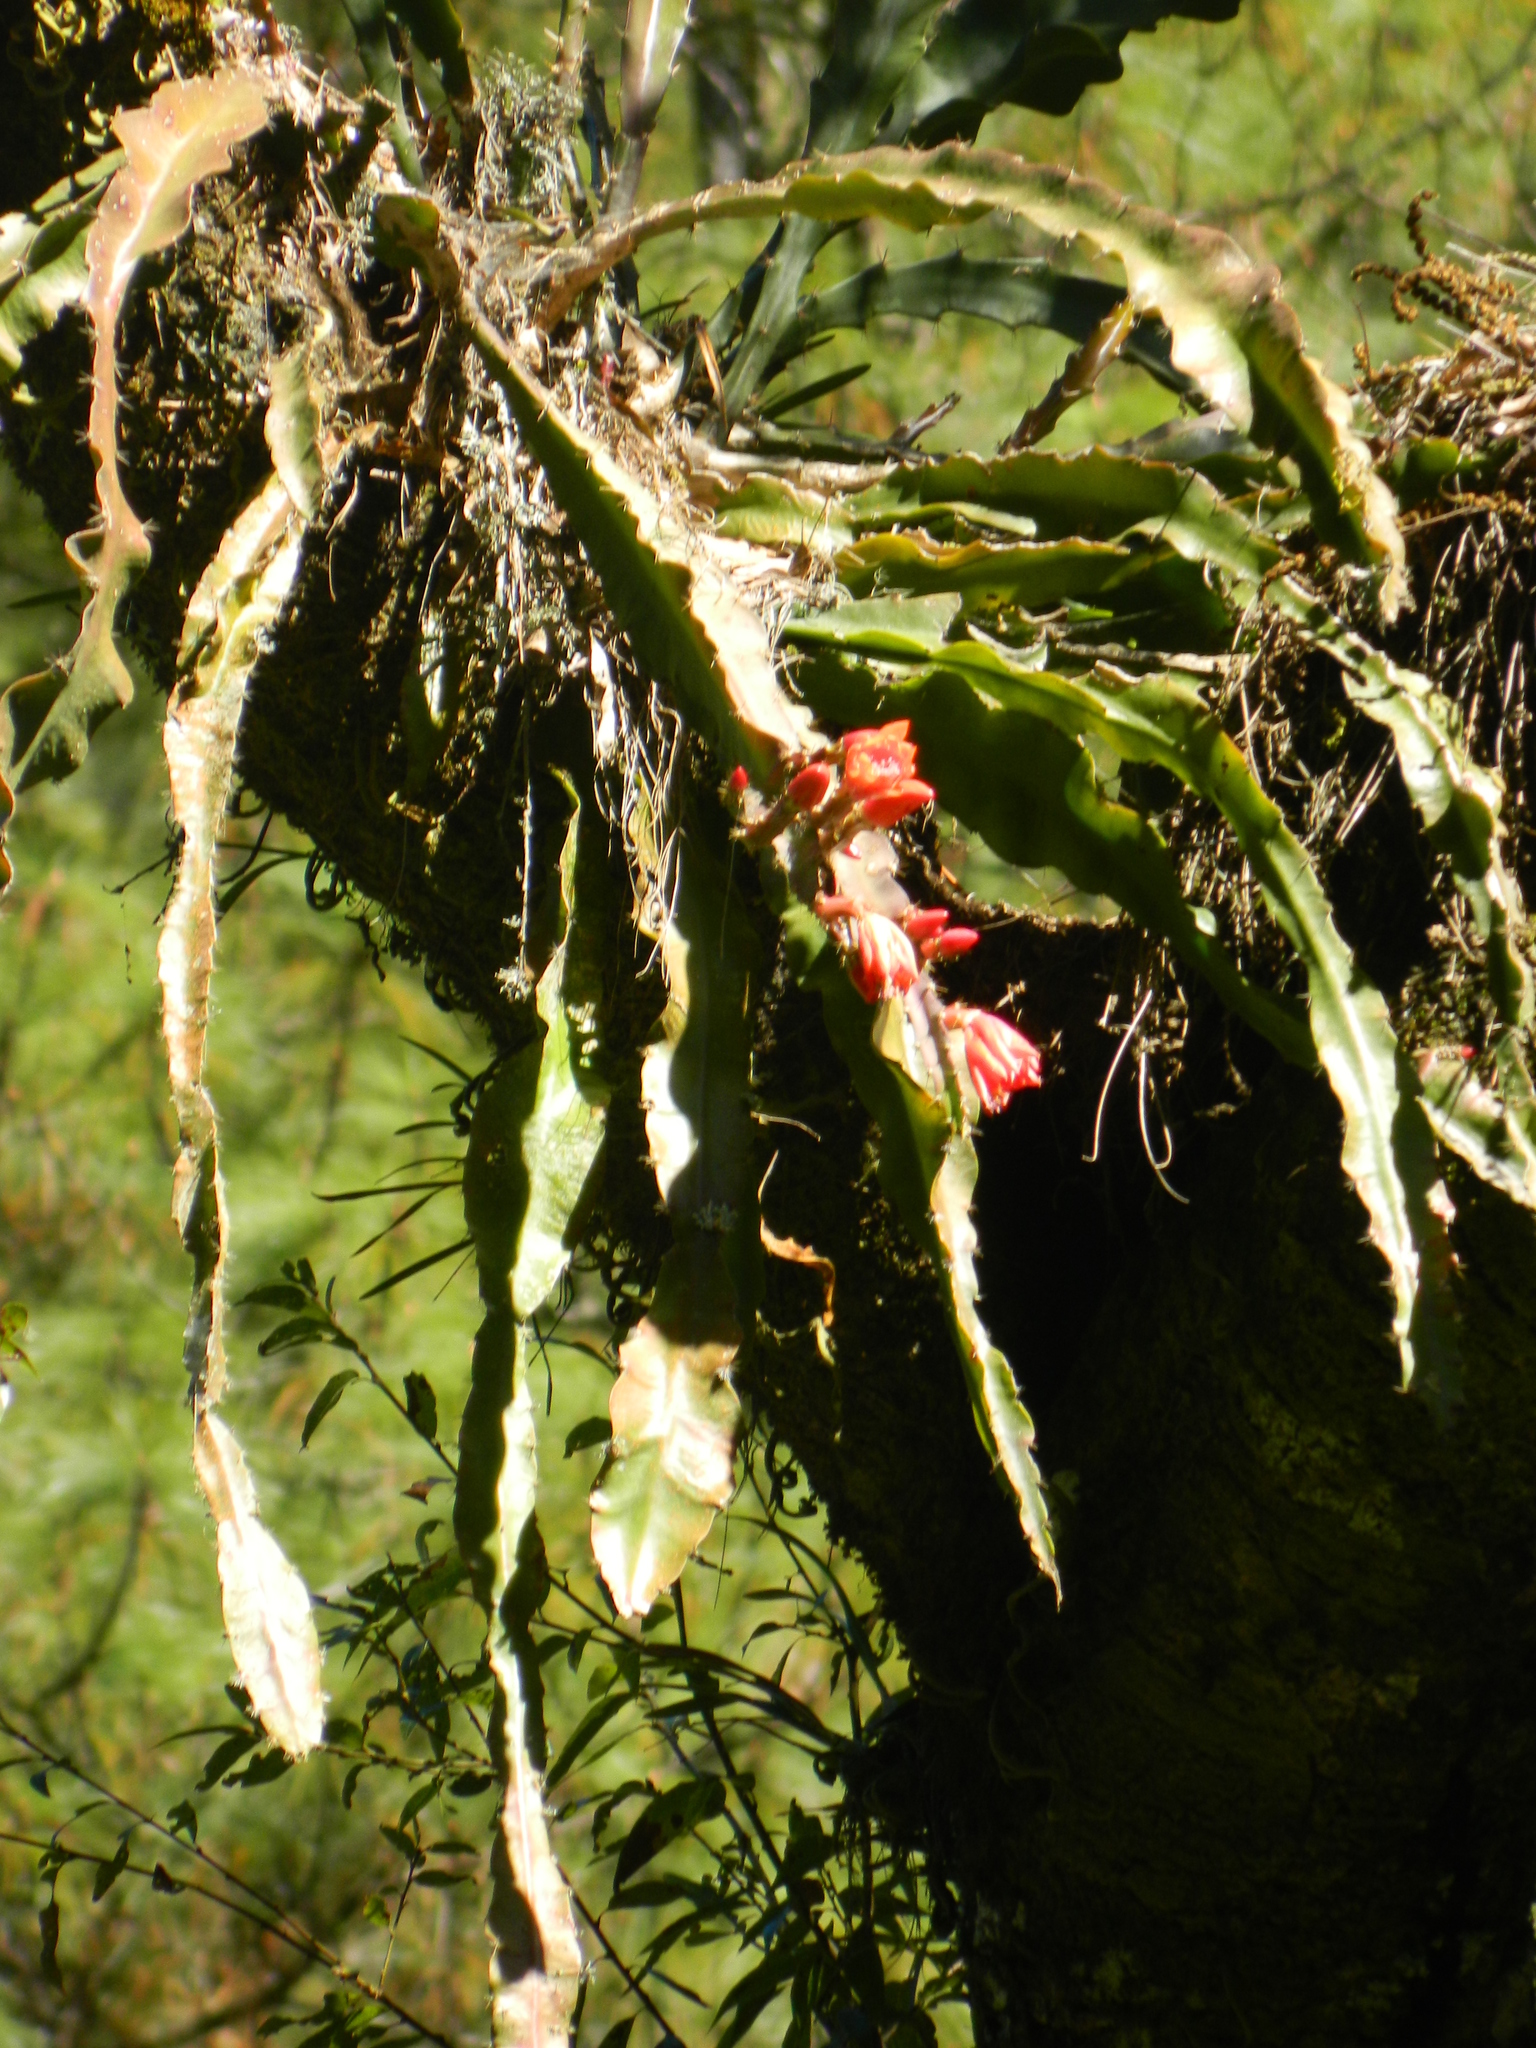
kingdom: Plantae
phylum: Tracheophyta
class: Magnoliopsida
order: Caryophyllales
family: Cactaceae
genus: Disocactus
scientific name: Disocactus speciosus
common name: Sun cereus
